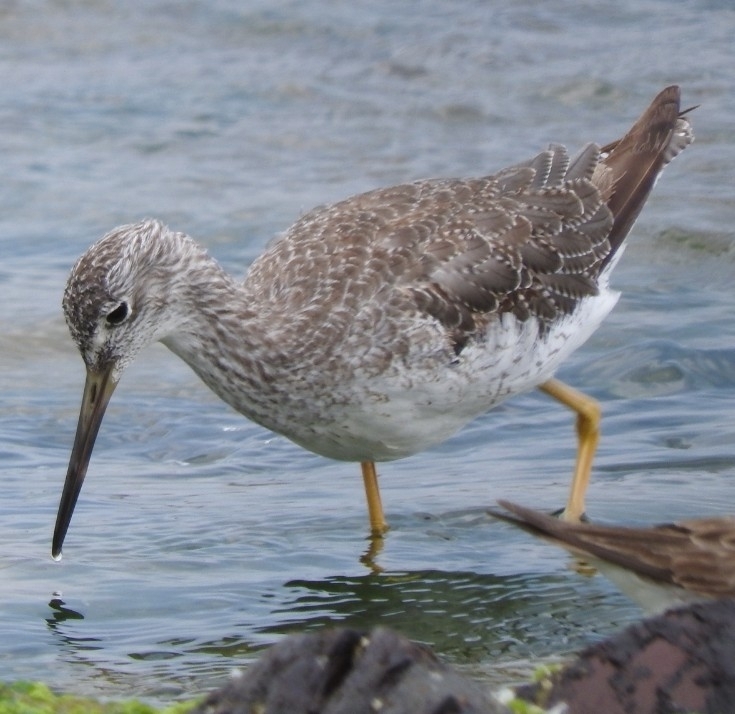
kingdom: Animalia
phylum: Chordata
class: Aves
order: Charadriiformes
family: Scolopacidae
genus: Tringa
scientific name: Tringa melanoleuca
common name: Greater yellowlegs
